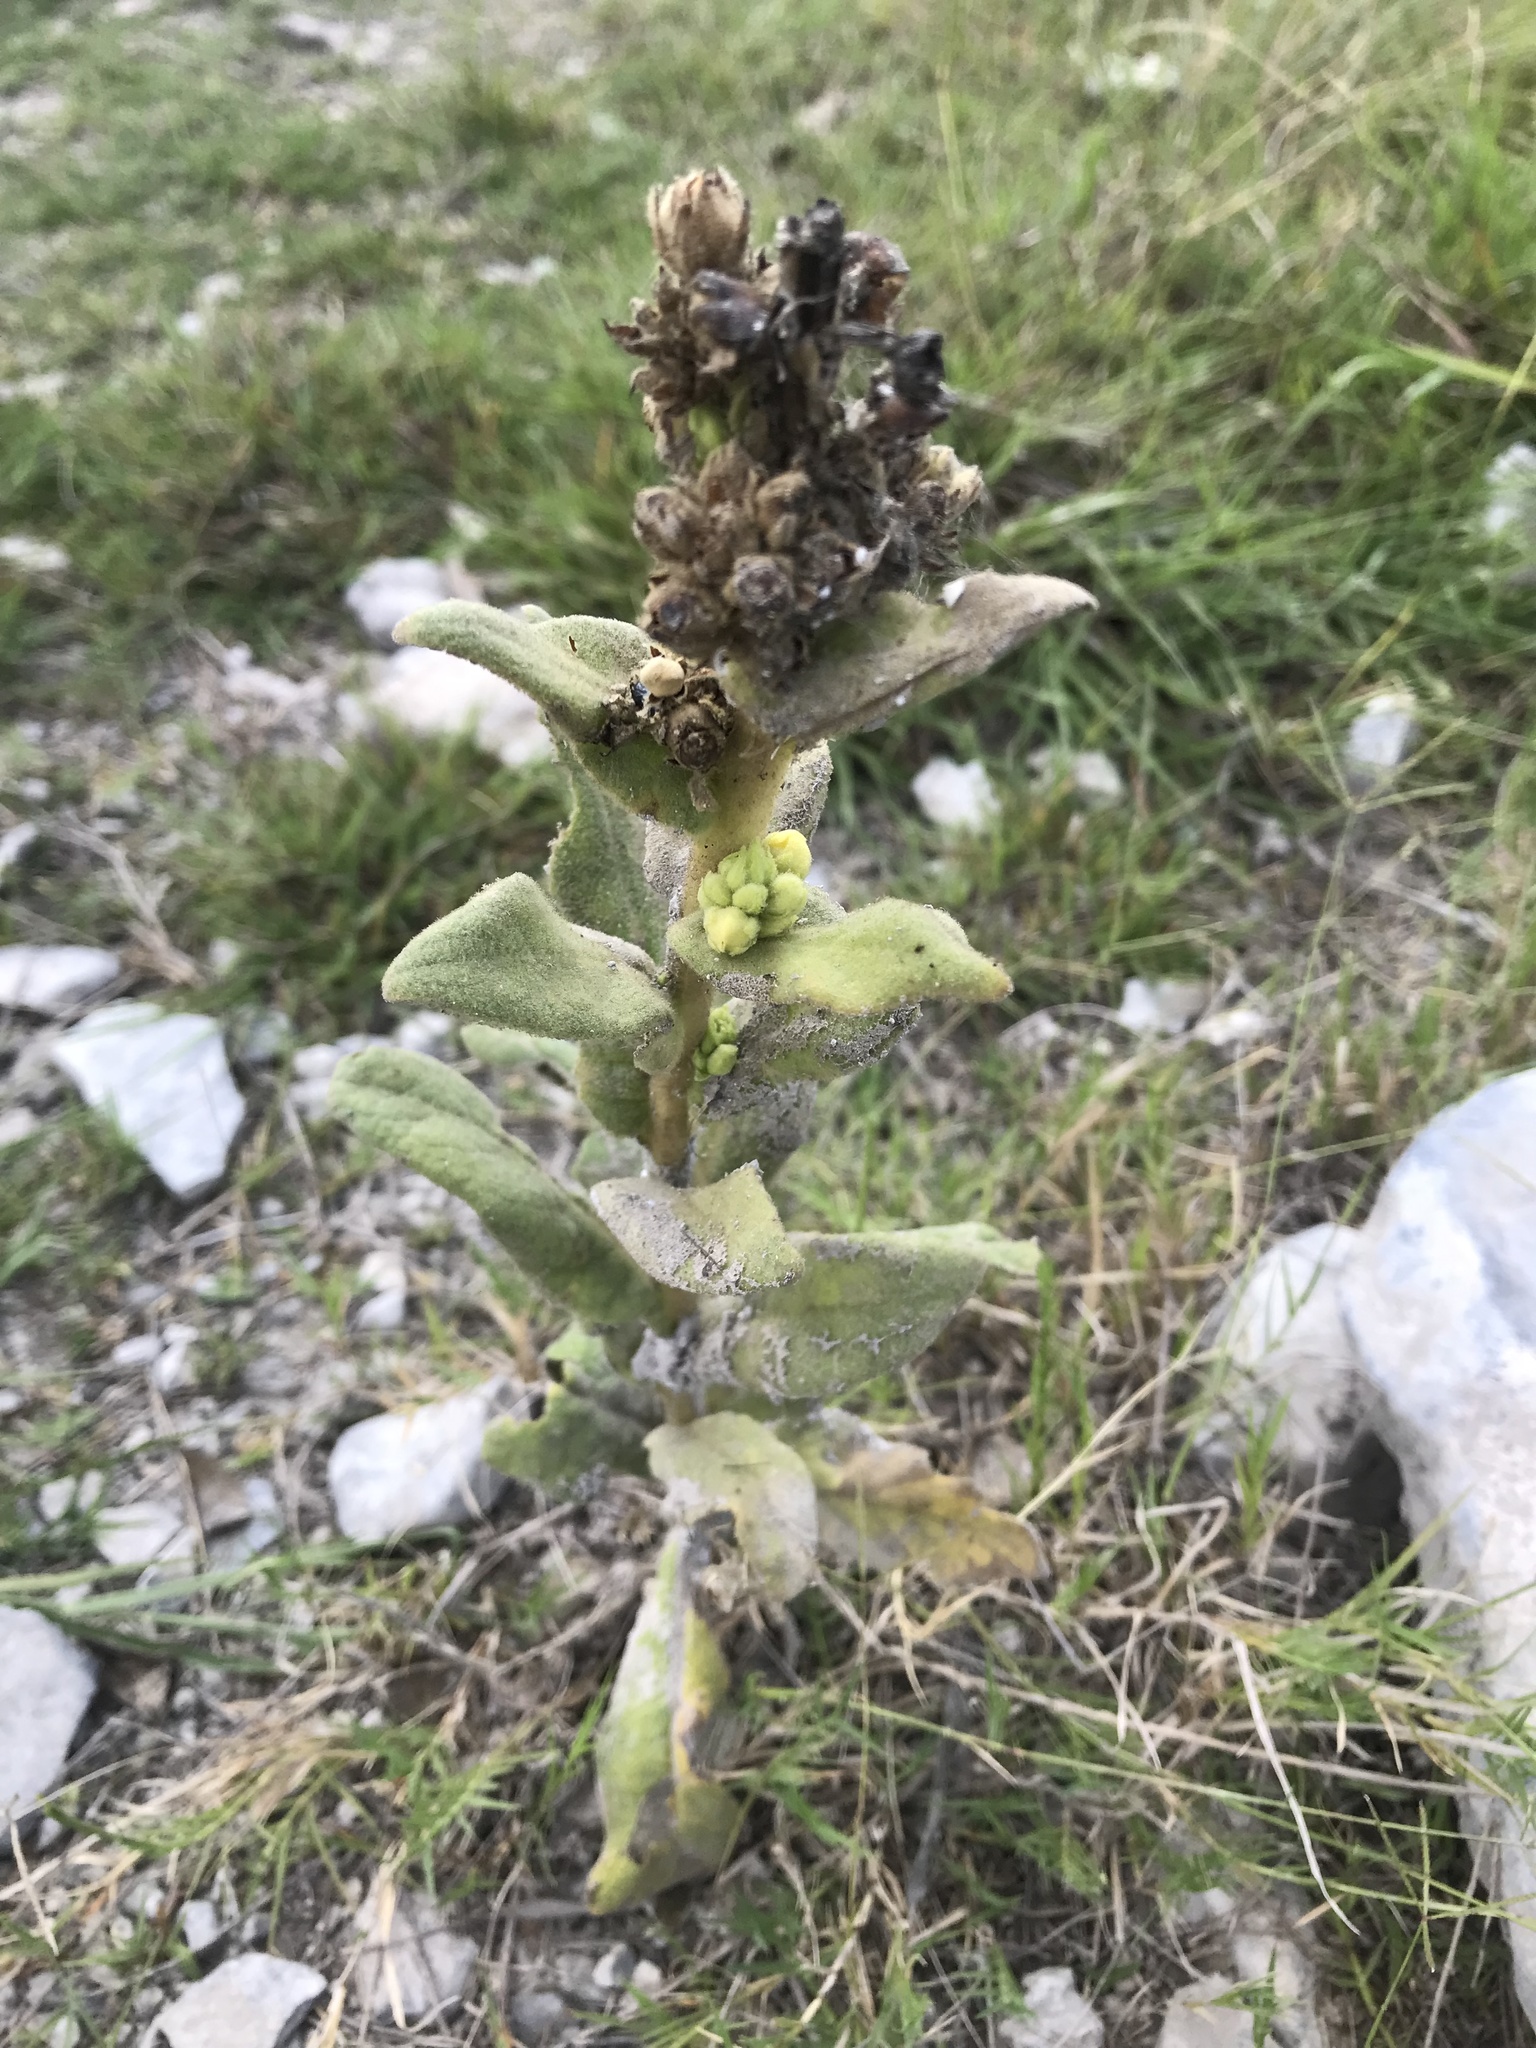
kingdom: Plantae
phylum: Tracheophyta
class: Magnoliopsida
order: Lamiales
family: Scrophulariaceae
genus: Verbascum
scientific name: Verbascum thapsus
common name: Common mullein
